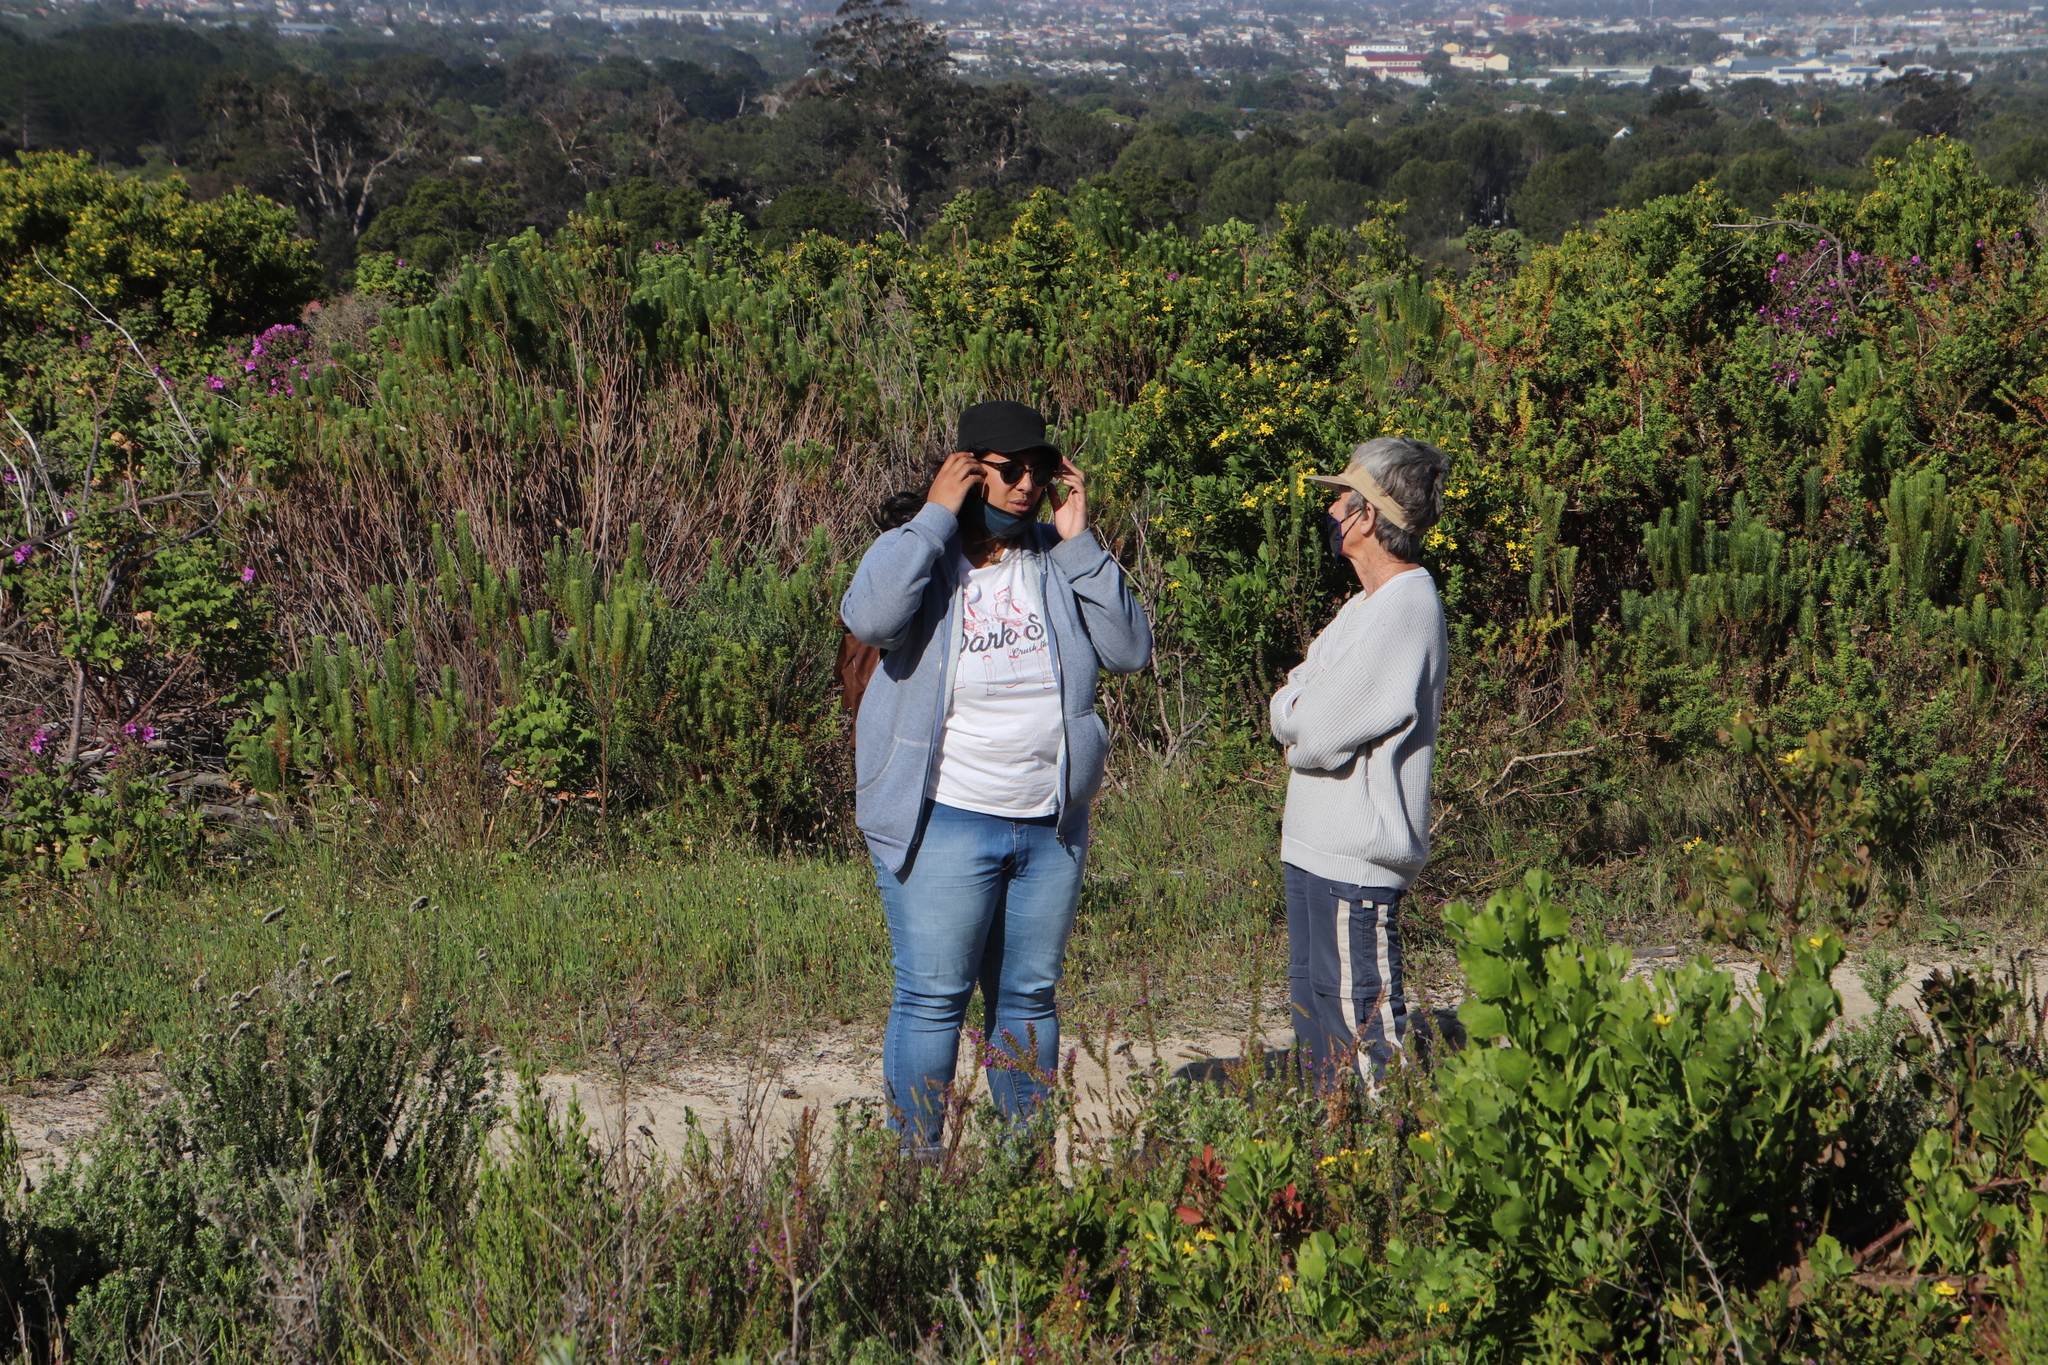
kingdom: Plantae
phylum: Tracheophyta
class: Magnoliopsida
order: Asterales
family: Asteraceae
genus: Osteospermum
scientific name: Osteospermum moniliferum
